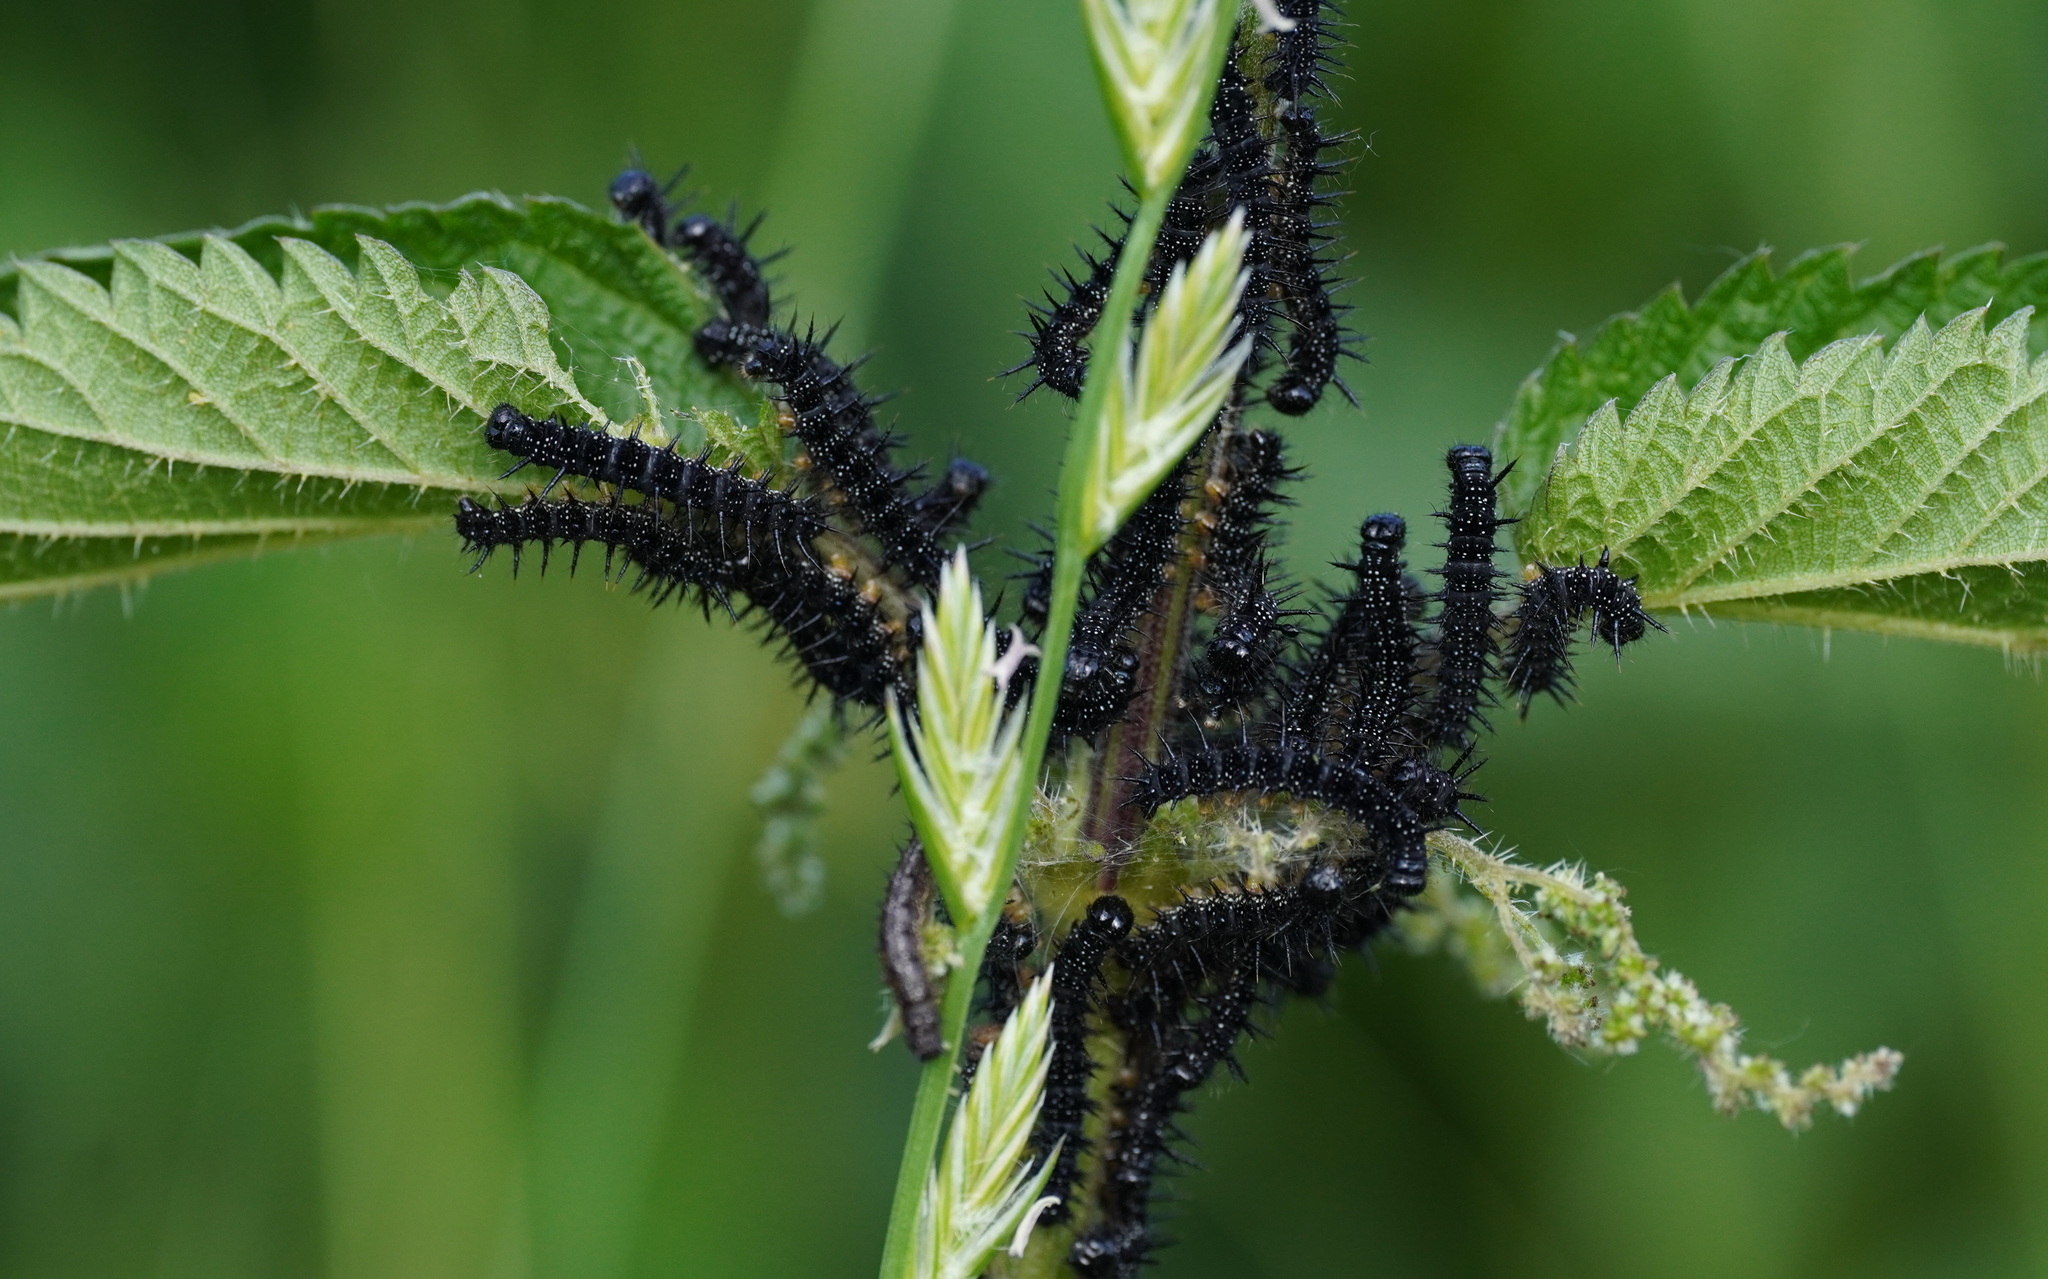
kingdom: Animalia
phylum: Arthropoda
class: Insecta
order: Lepidoptera
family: Nymphalidae
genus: Aglais
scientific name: Aglais io
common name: Peacock
